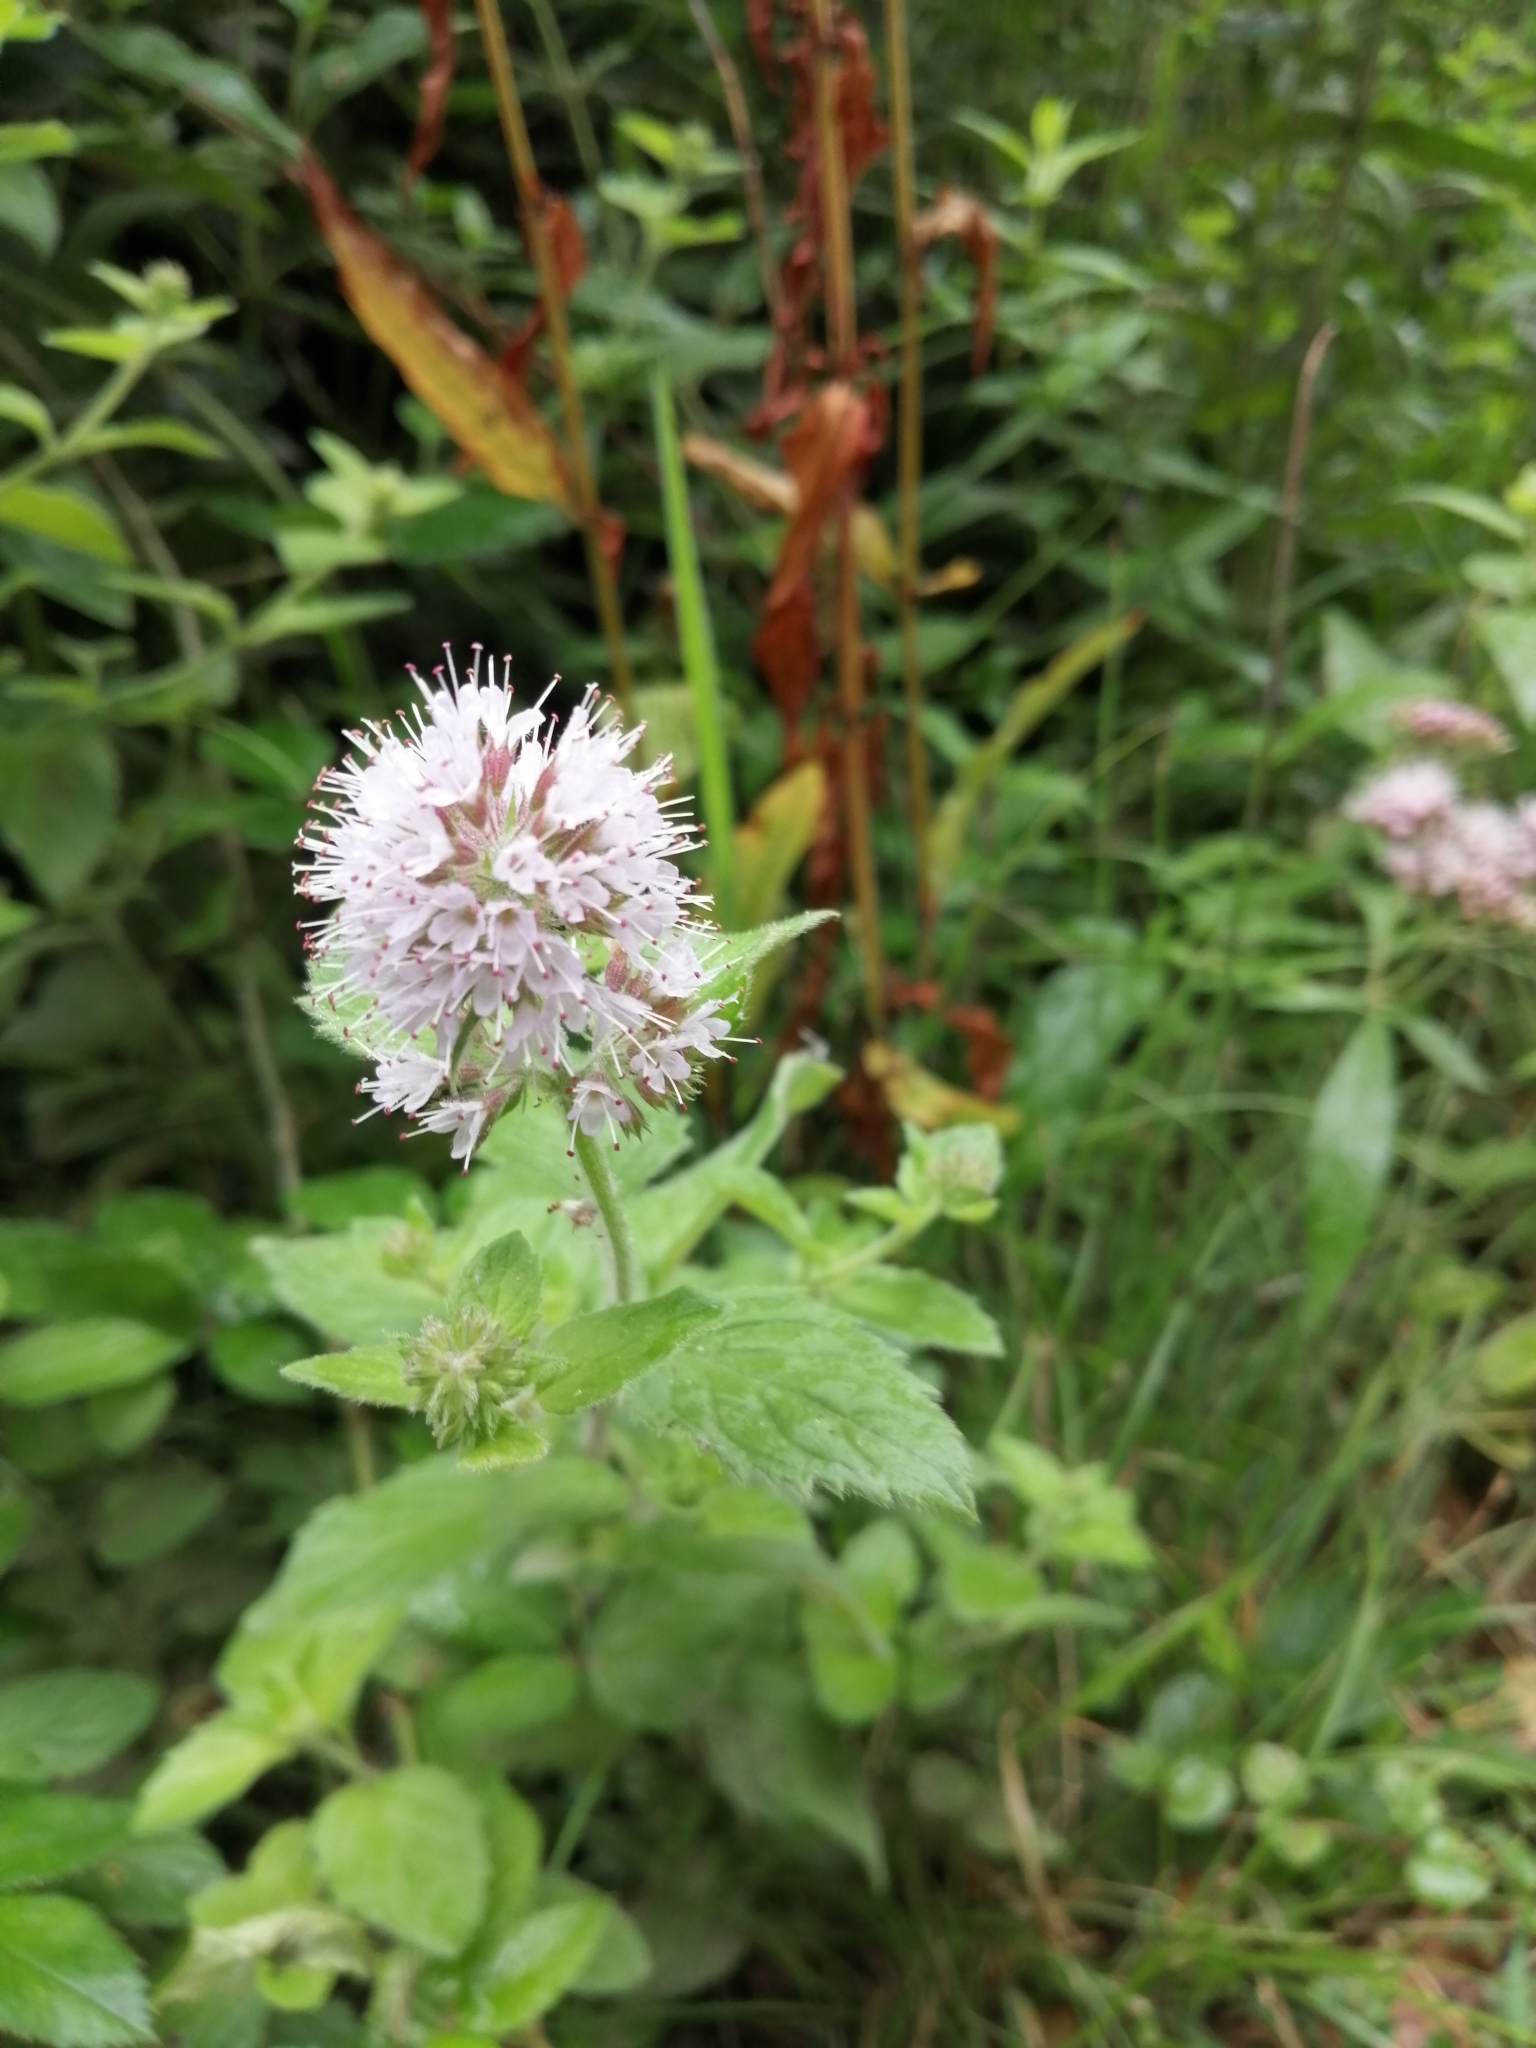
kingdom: Plantae
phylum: Tracheophyta
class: Magnoliopsida
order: Lamiales
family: Lamiaceae
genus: Mentha
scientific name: Mentha aquatica
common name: Water mint
